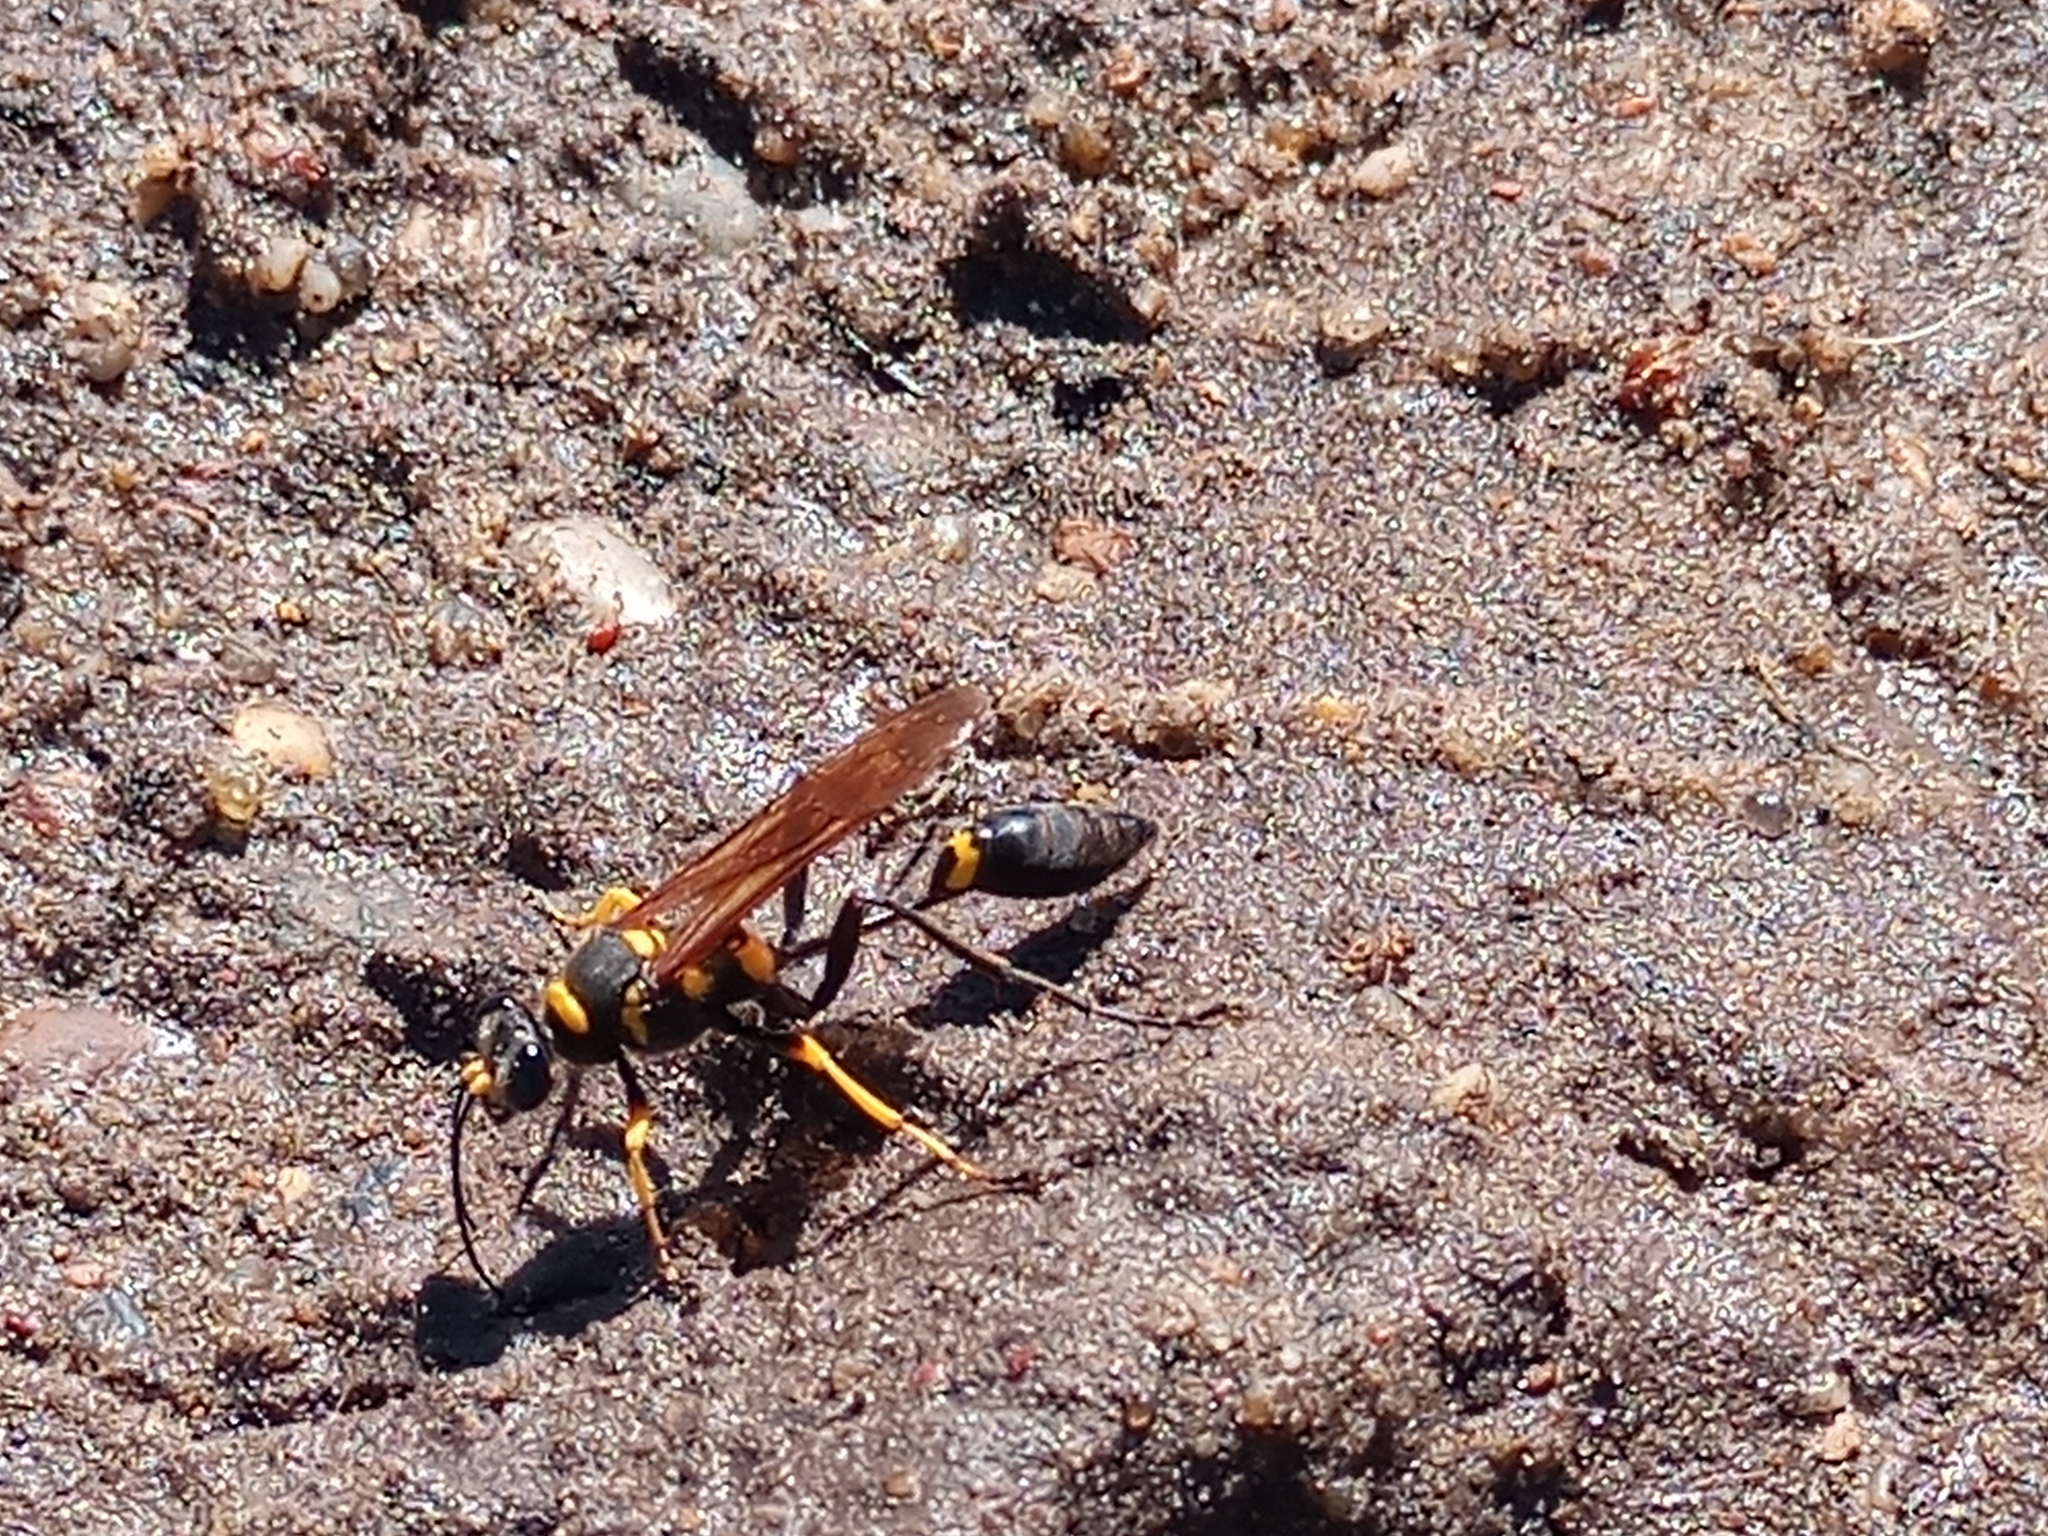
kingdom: Animalia
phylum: Arthropoda
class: Insecta
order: Hymenoptera
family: Sphecidae
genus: Sceliphron
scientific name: Sceliphron asiaticum
